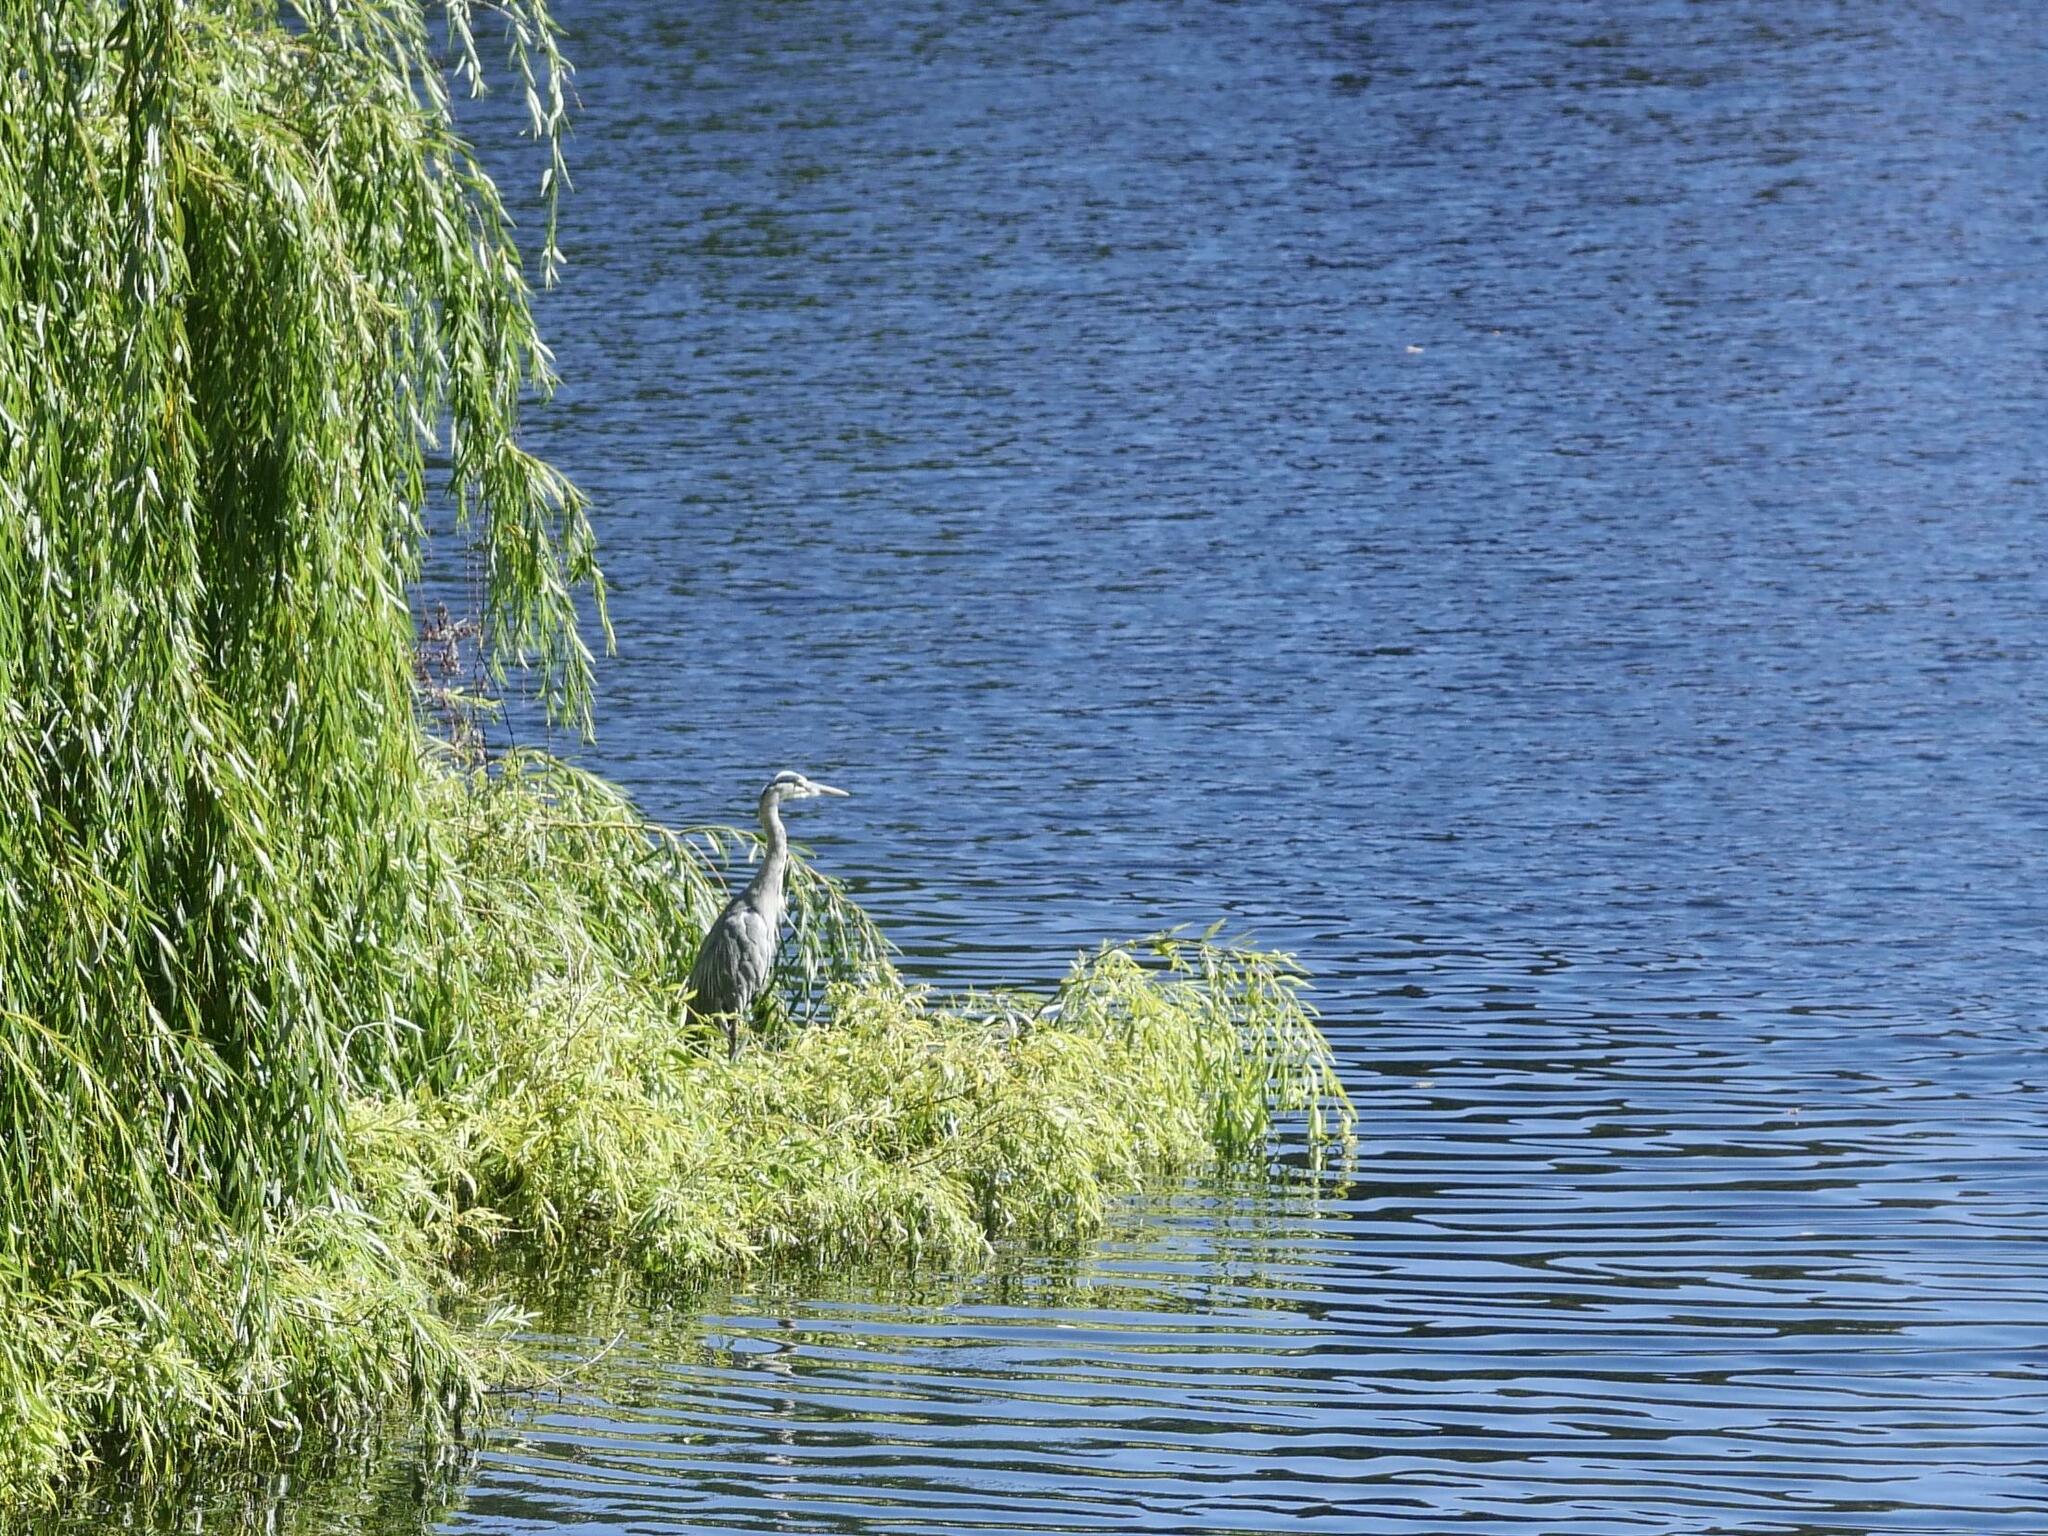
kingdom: Animalia
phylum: Chordata
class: Aves
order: Pelecaniformes
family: Ardeidae
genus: Ardea
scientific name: Ardea cinerea
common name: Grey heron
